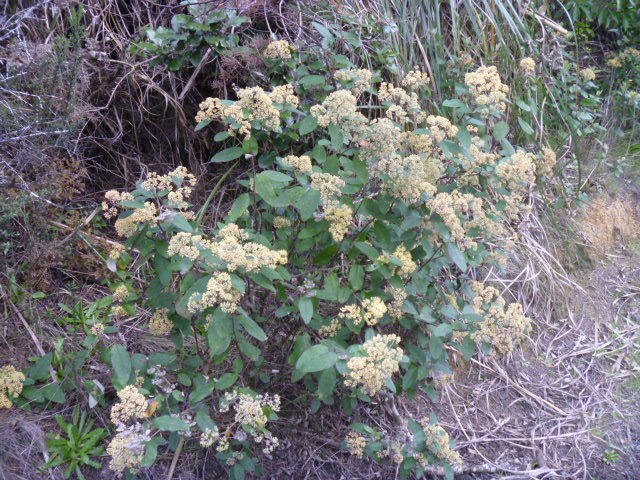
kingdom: Plantae
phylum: Tracheophyta
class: Magnoliopsida
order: Rosales
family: Rhamnaceae
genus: Pomaderris
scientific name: Pomaderris kumeraho
